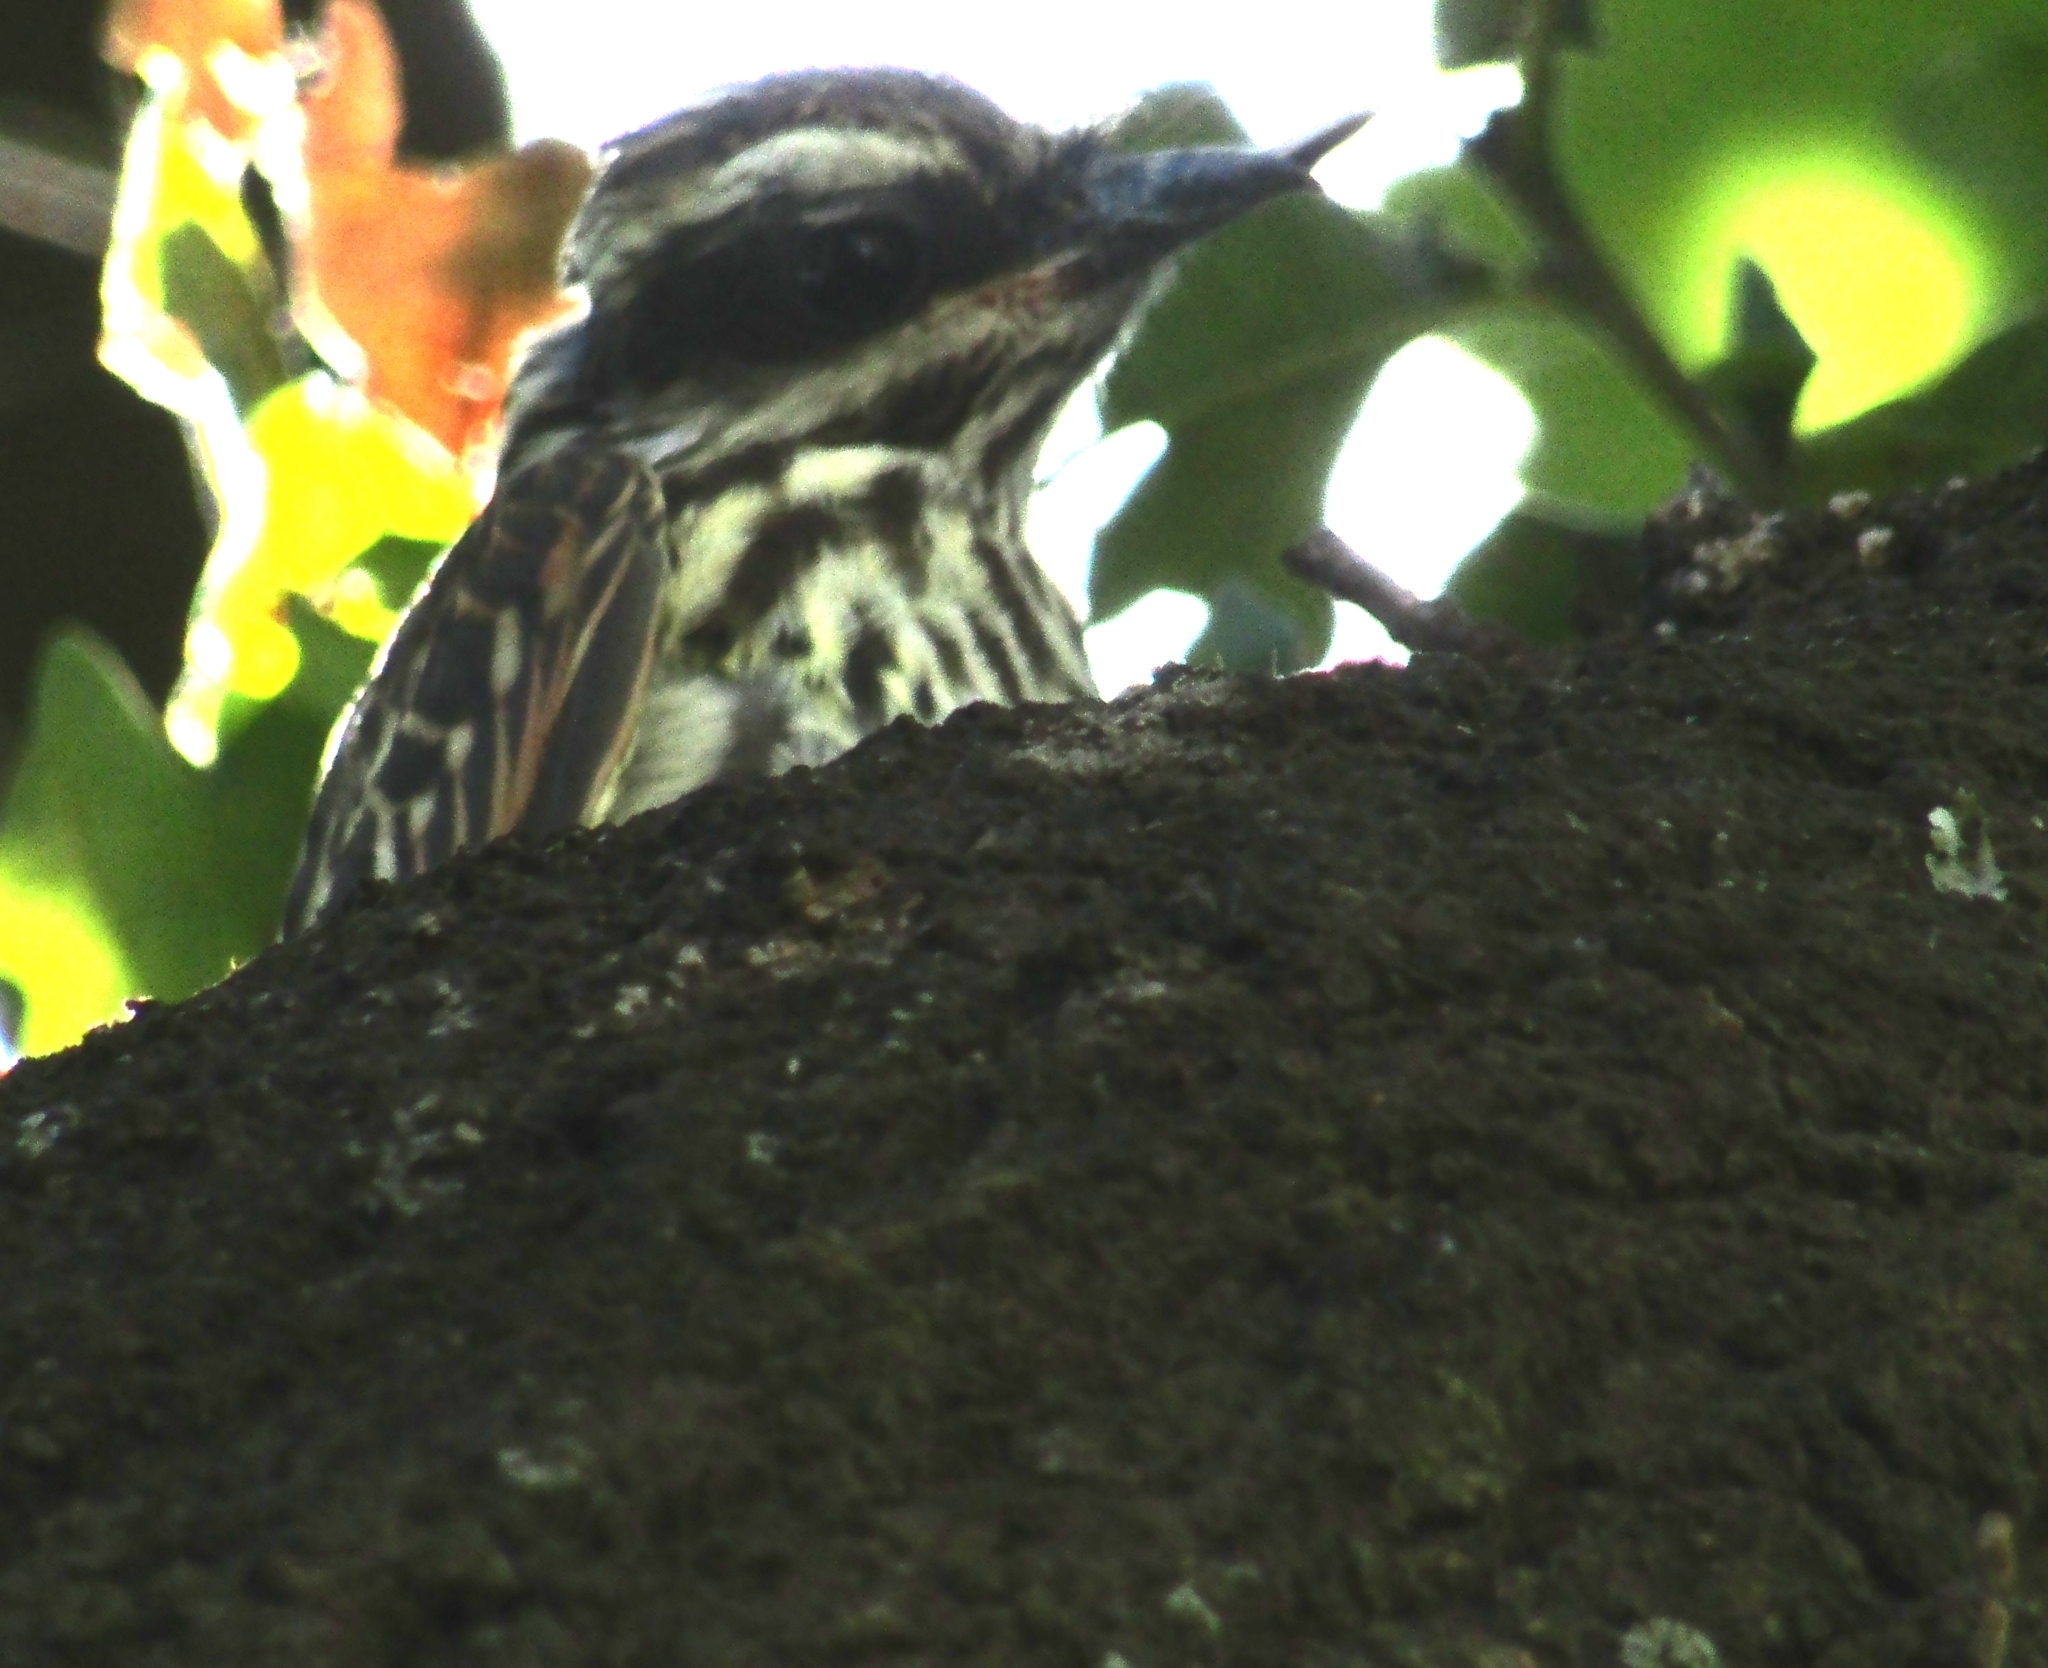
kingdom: Animalia
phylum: Chordata
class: Aves
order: Passeriformes
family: Tyrannidae
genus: Myiodynastes
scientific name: Myiodynastes maculatus
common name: Streaked flycatcher
